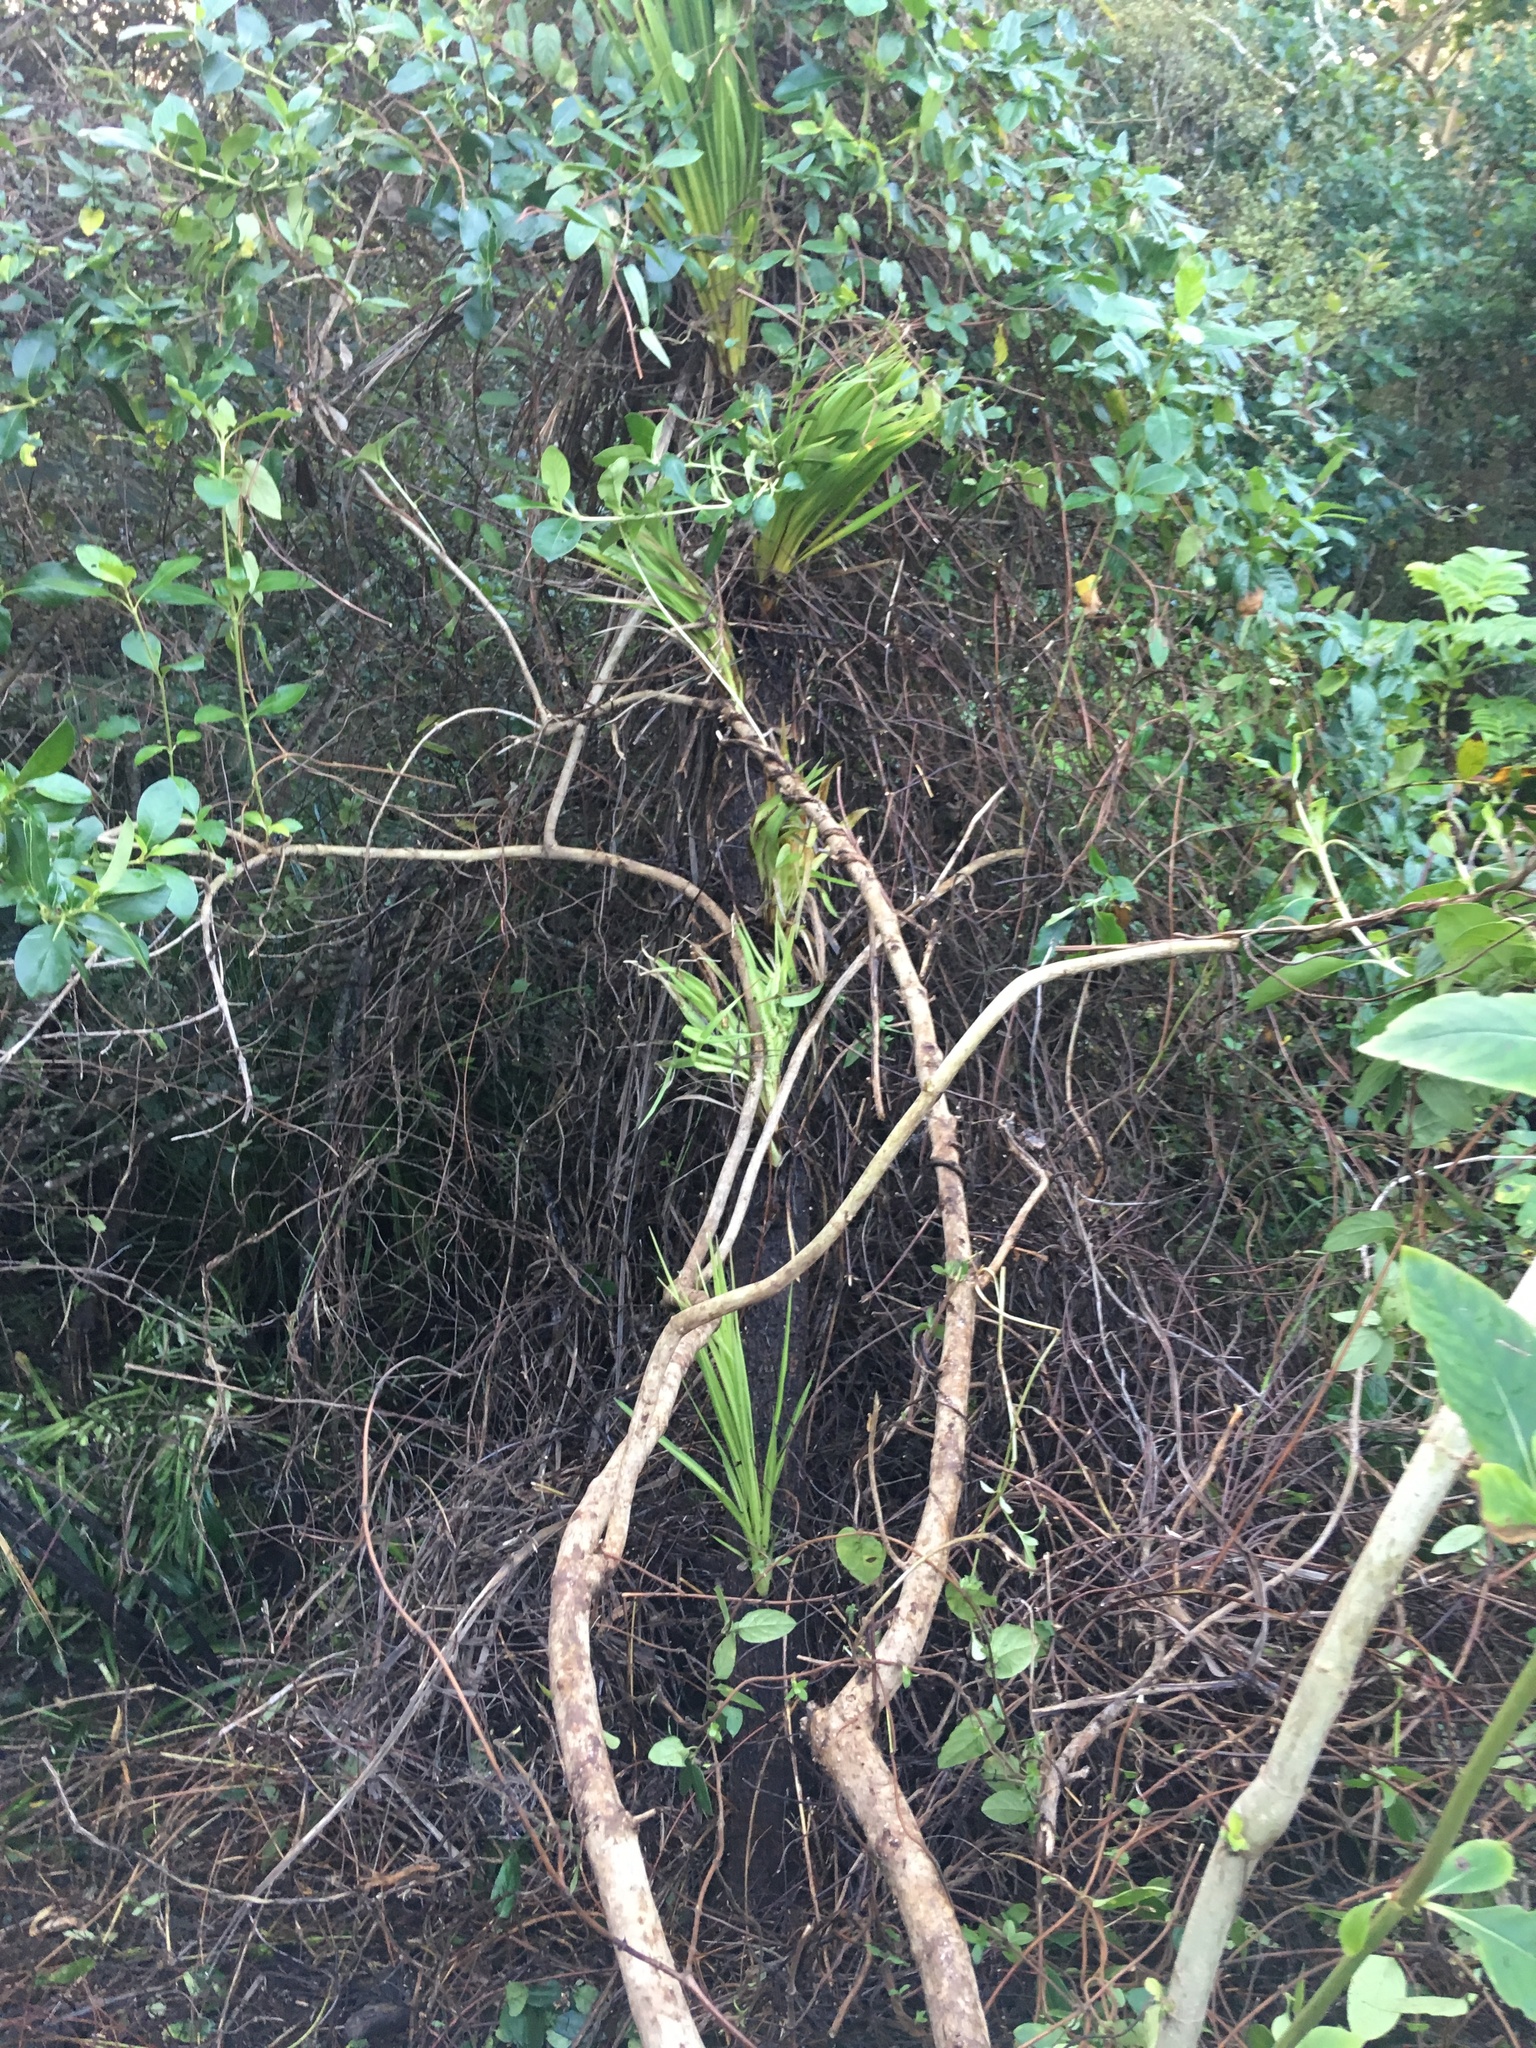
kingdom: Plantae
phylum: Tracheophyta
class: Magnoliopsida
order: Gentianales
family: Rubiaceae
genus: Coprosma
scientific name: Coprosma robusta
